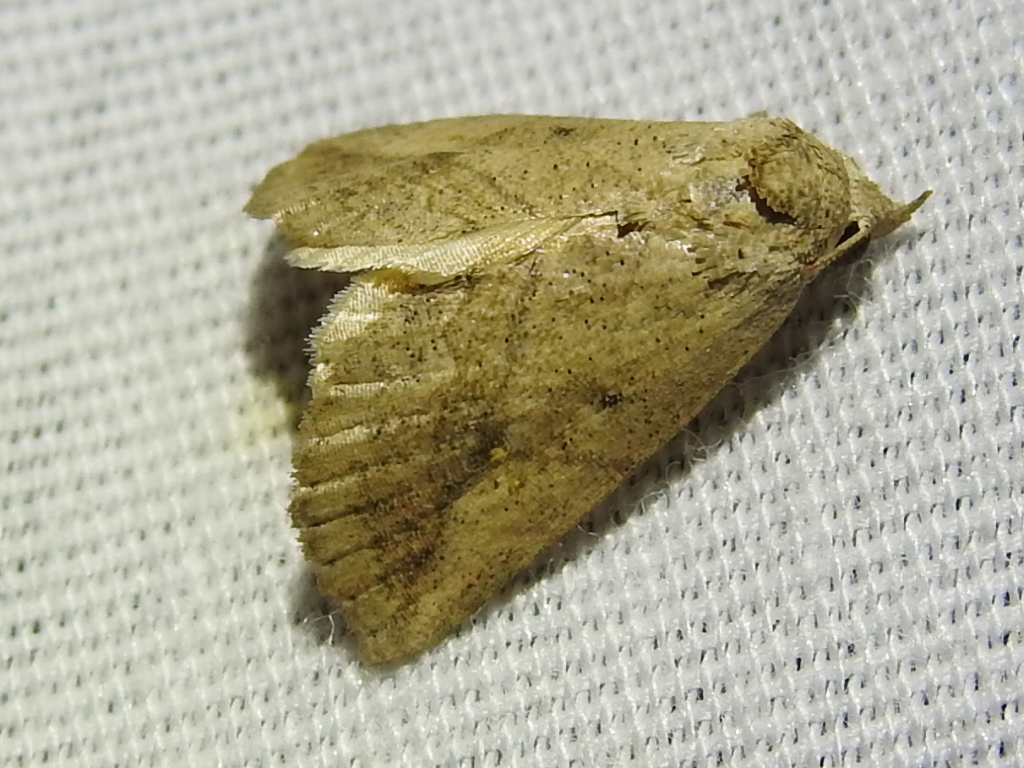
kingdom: Animalia
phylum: Arthropoda
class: Insecta
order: Lepidoptera
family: Erebidae
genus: Isogona
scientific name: Isogona snowi
